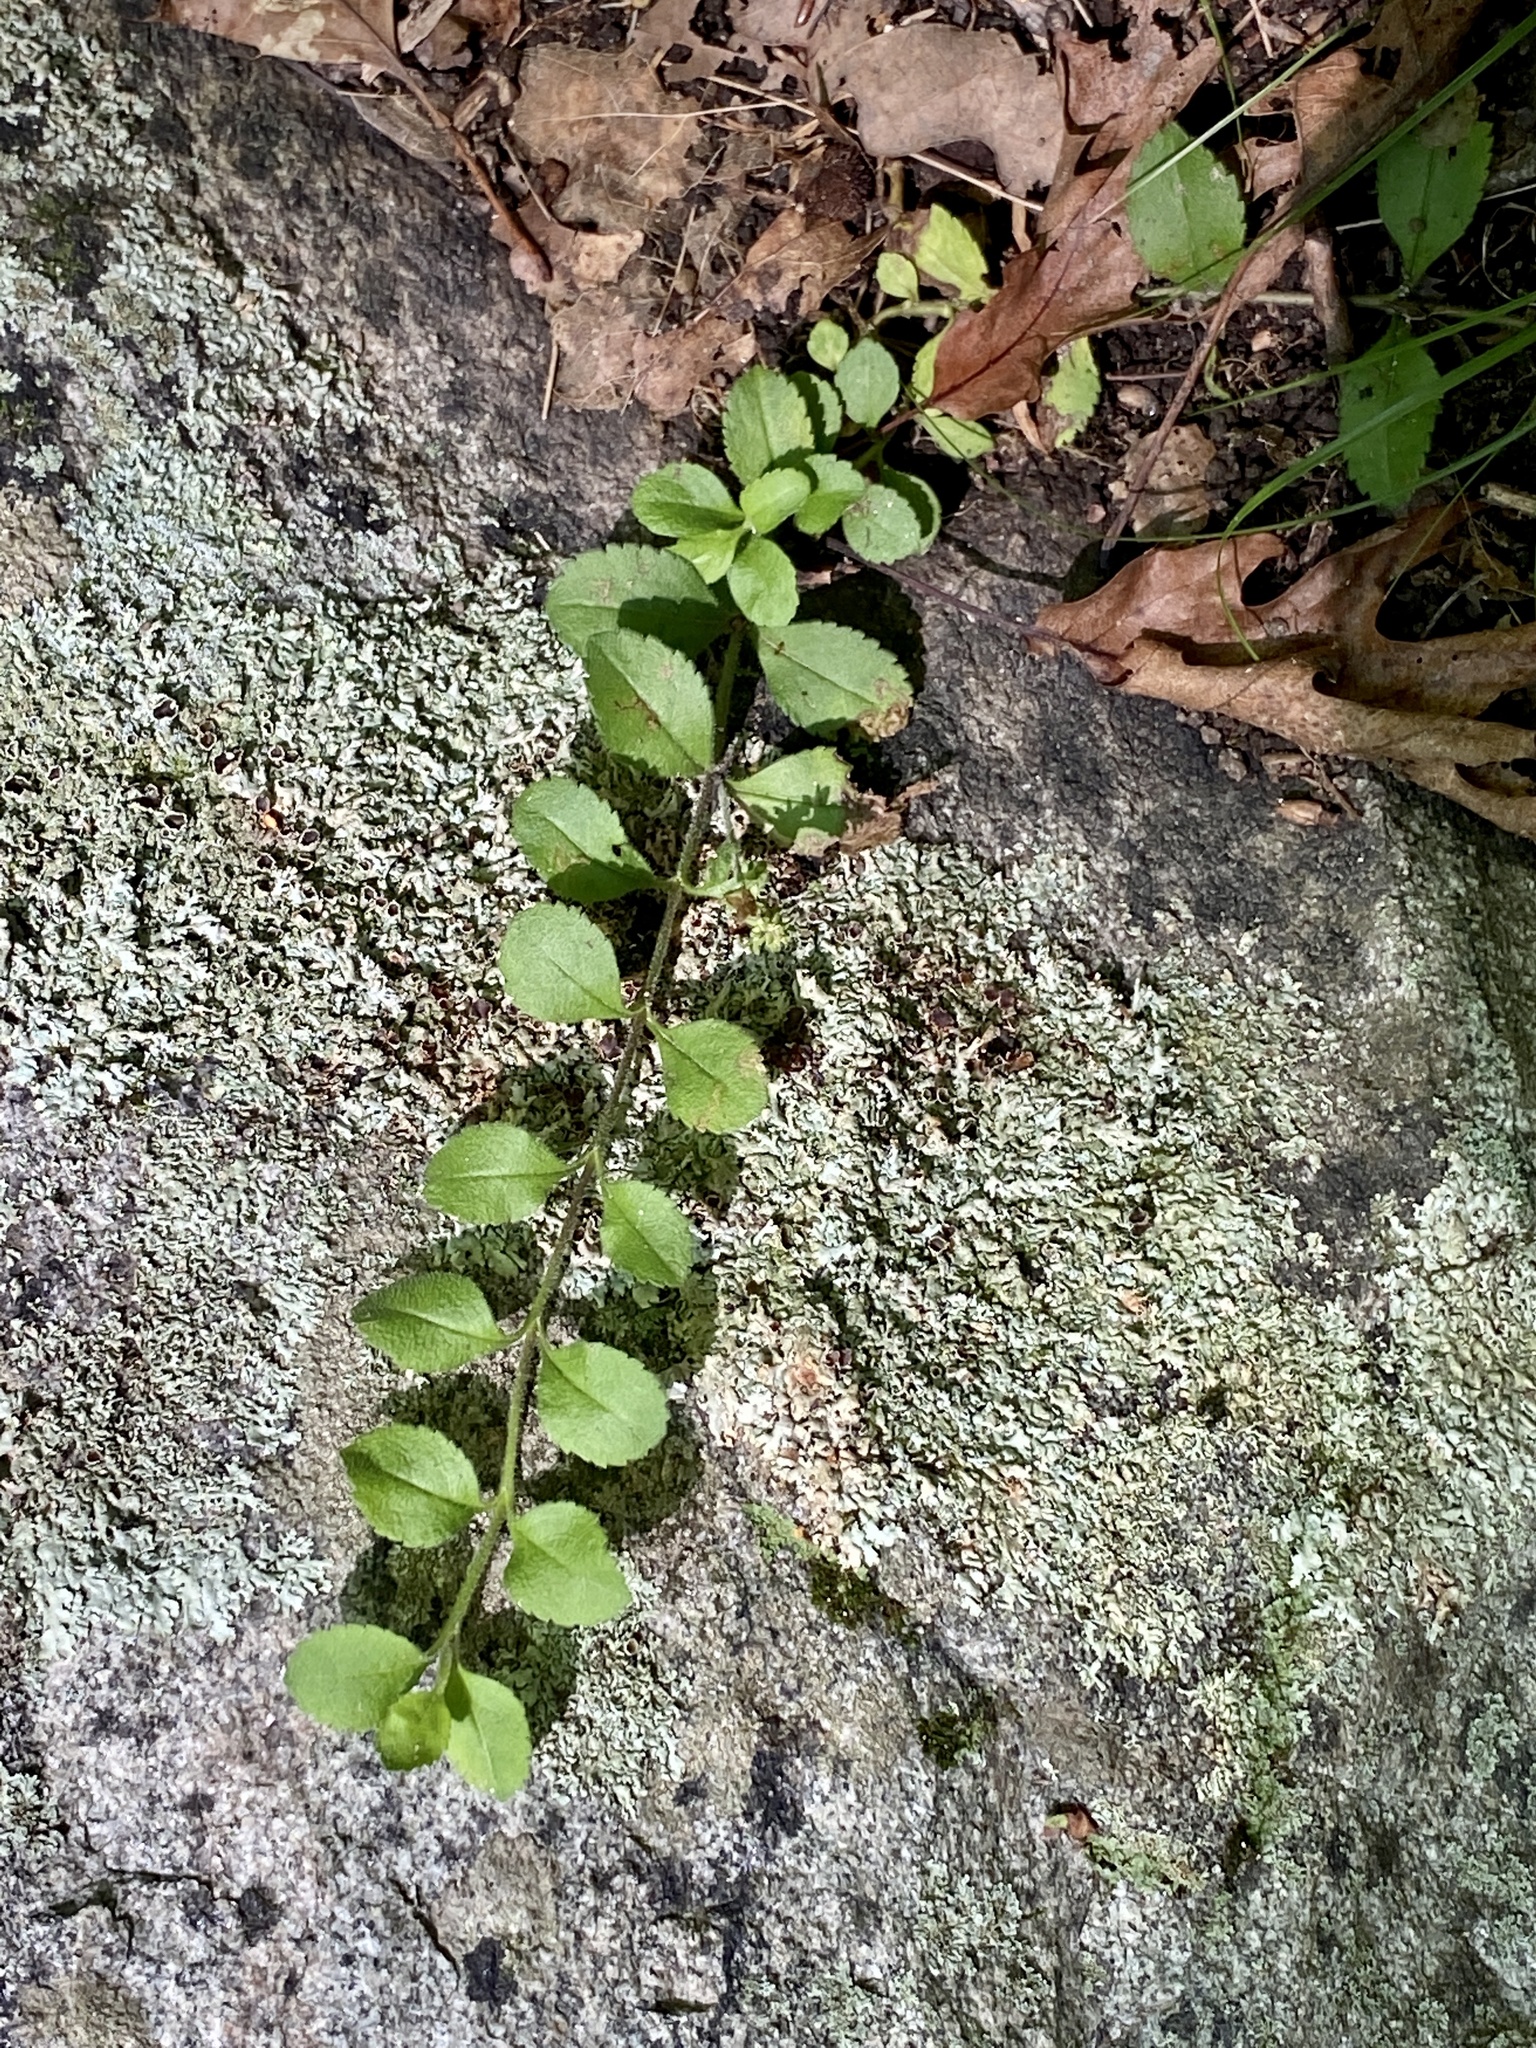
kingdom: Plantae
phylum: Tracheophyta
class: Magnoliopsida
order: Lamiales
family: Plantaginaceae
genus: Veronica
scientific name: Veronica officinalis
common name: Common speedwell
